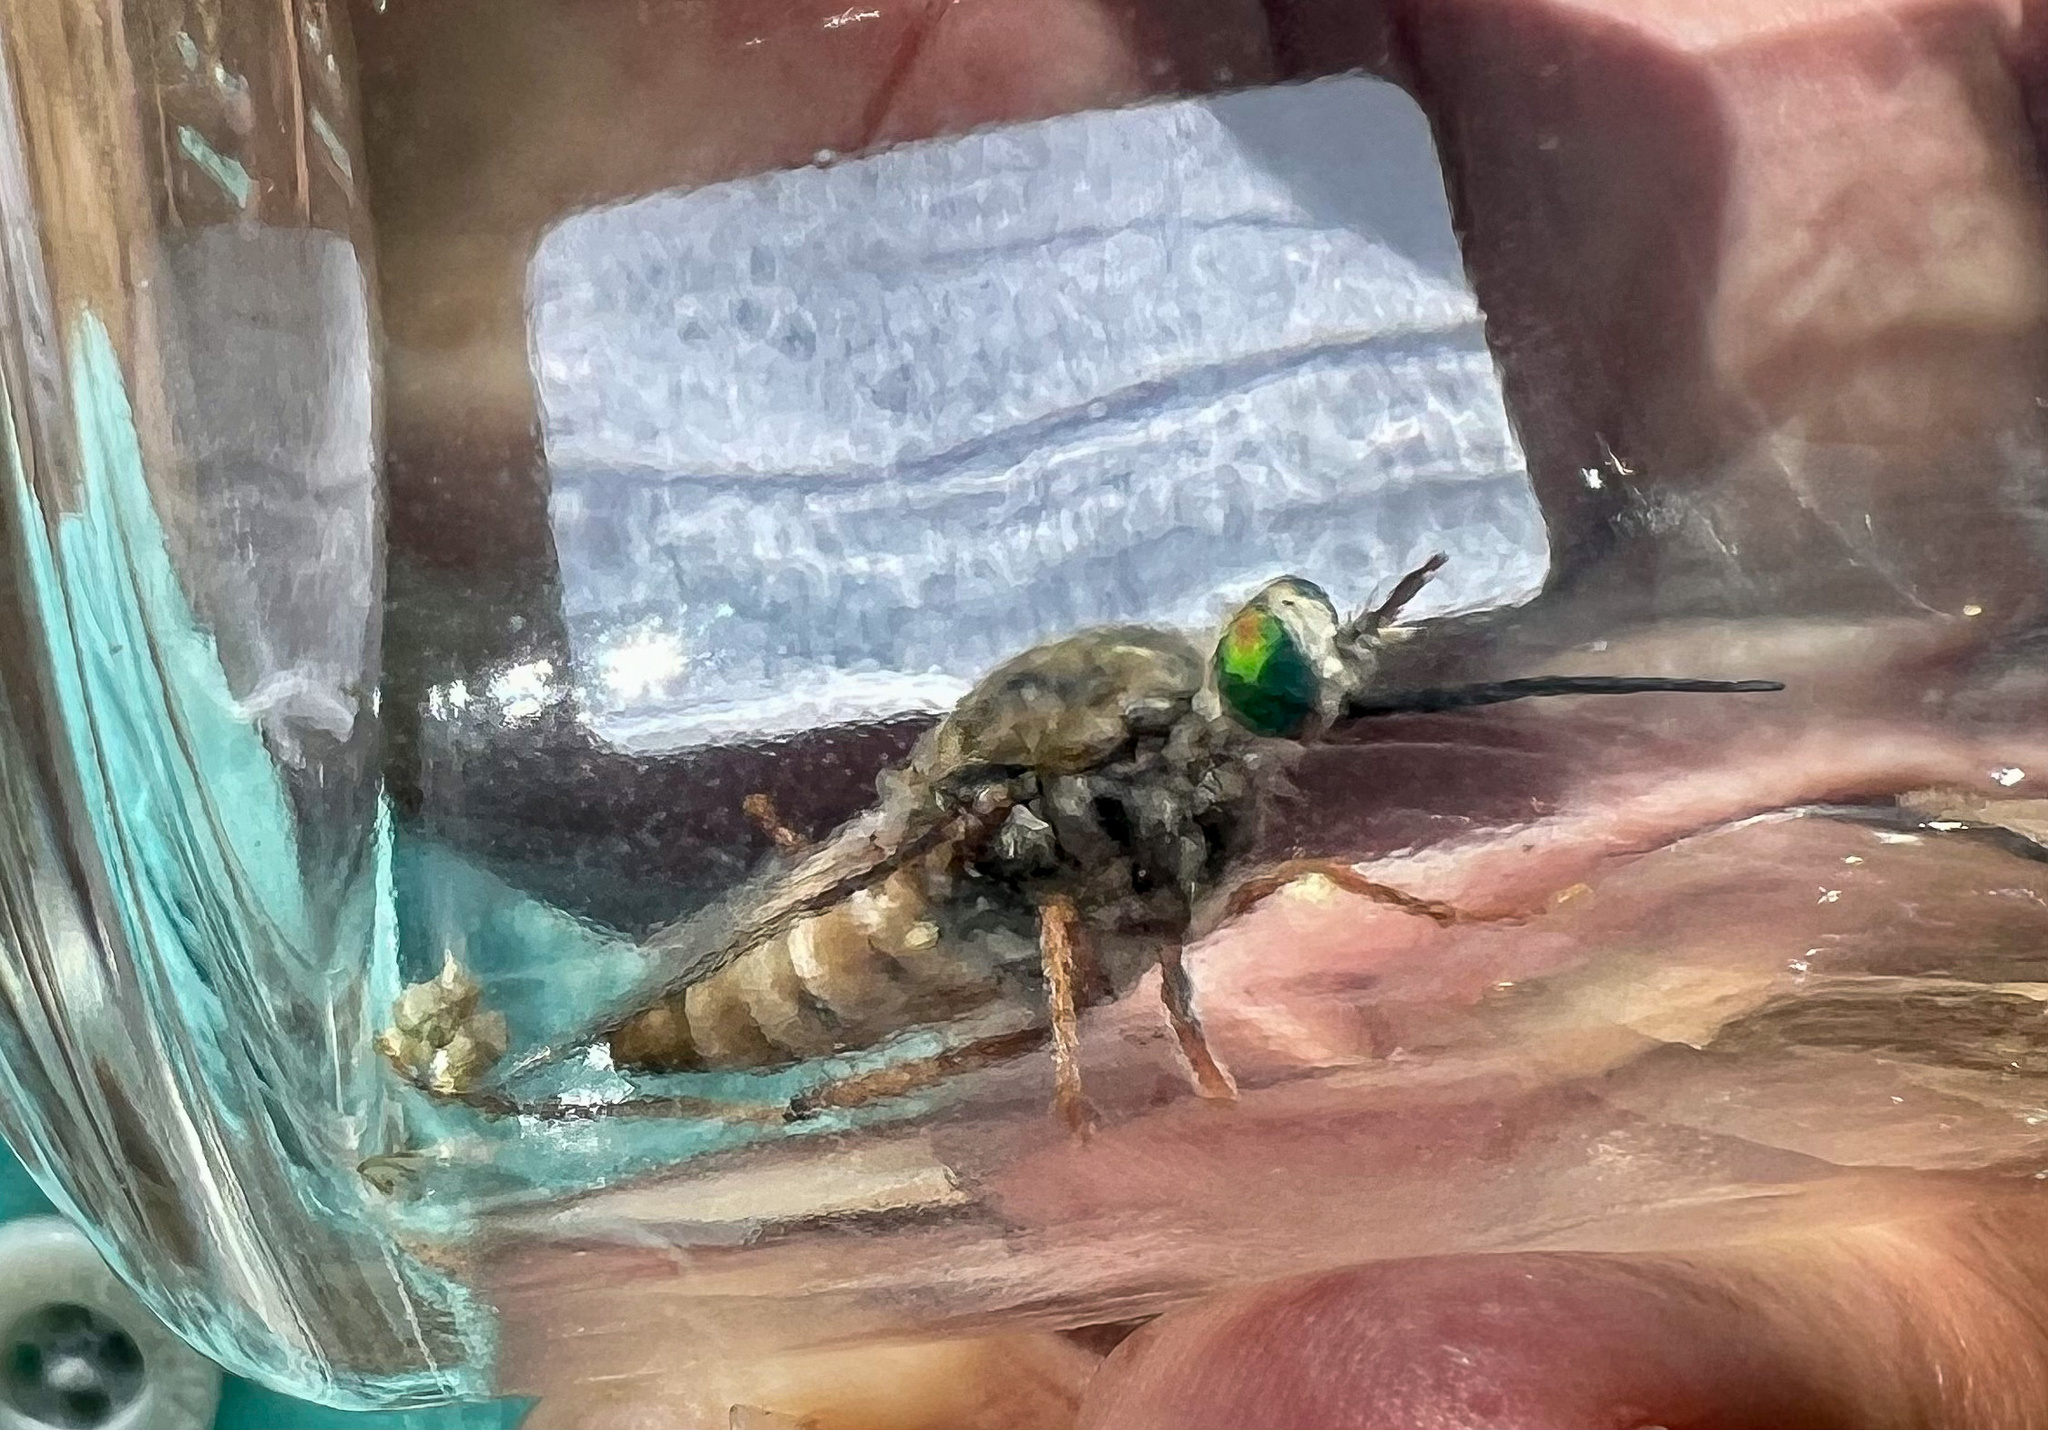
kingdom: Animalia
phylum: Arthropoda
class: Insecta
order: Diptera
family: Mydidae
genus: Rhaphiomidas
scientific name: Rhaphiomidas acton
